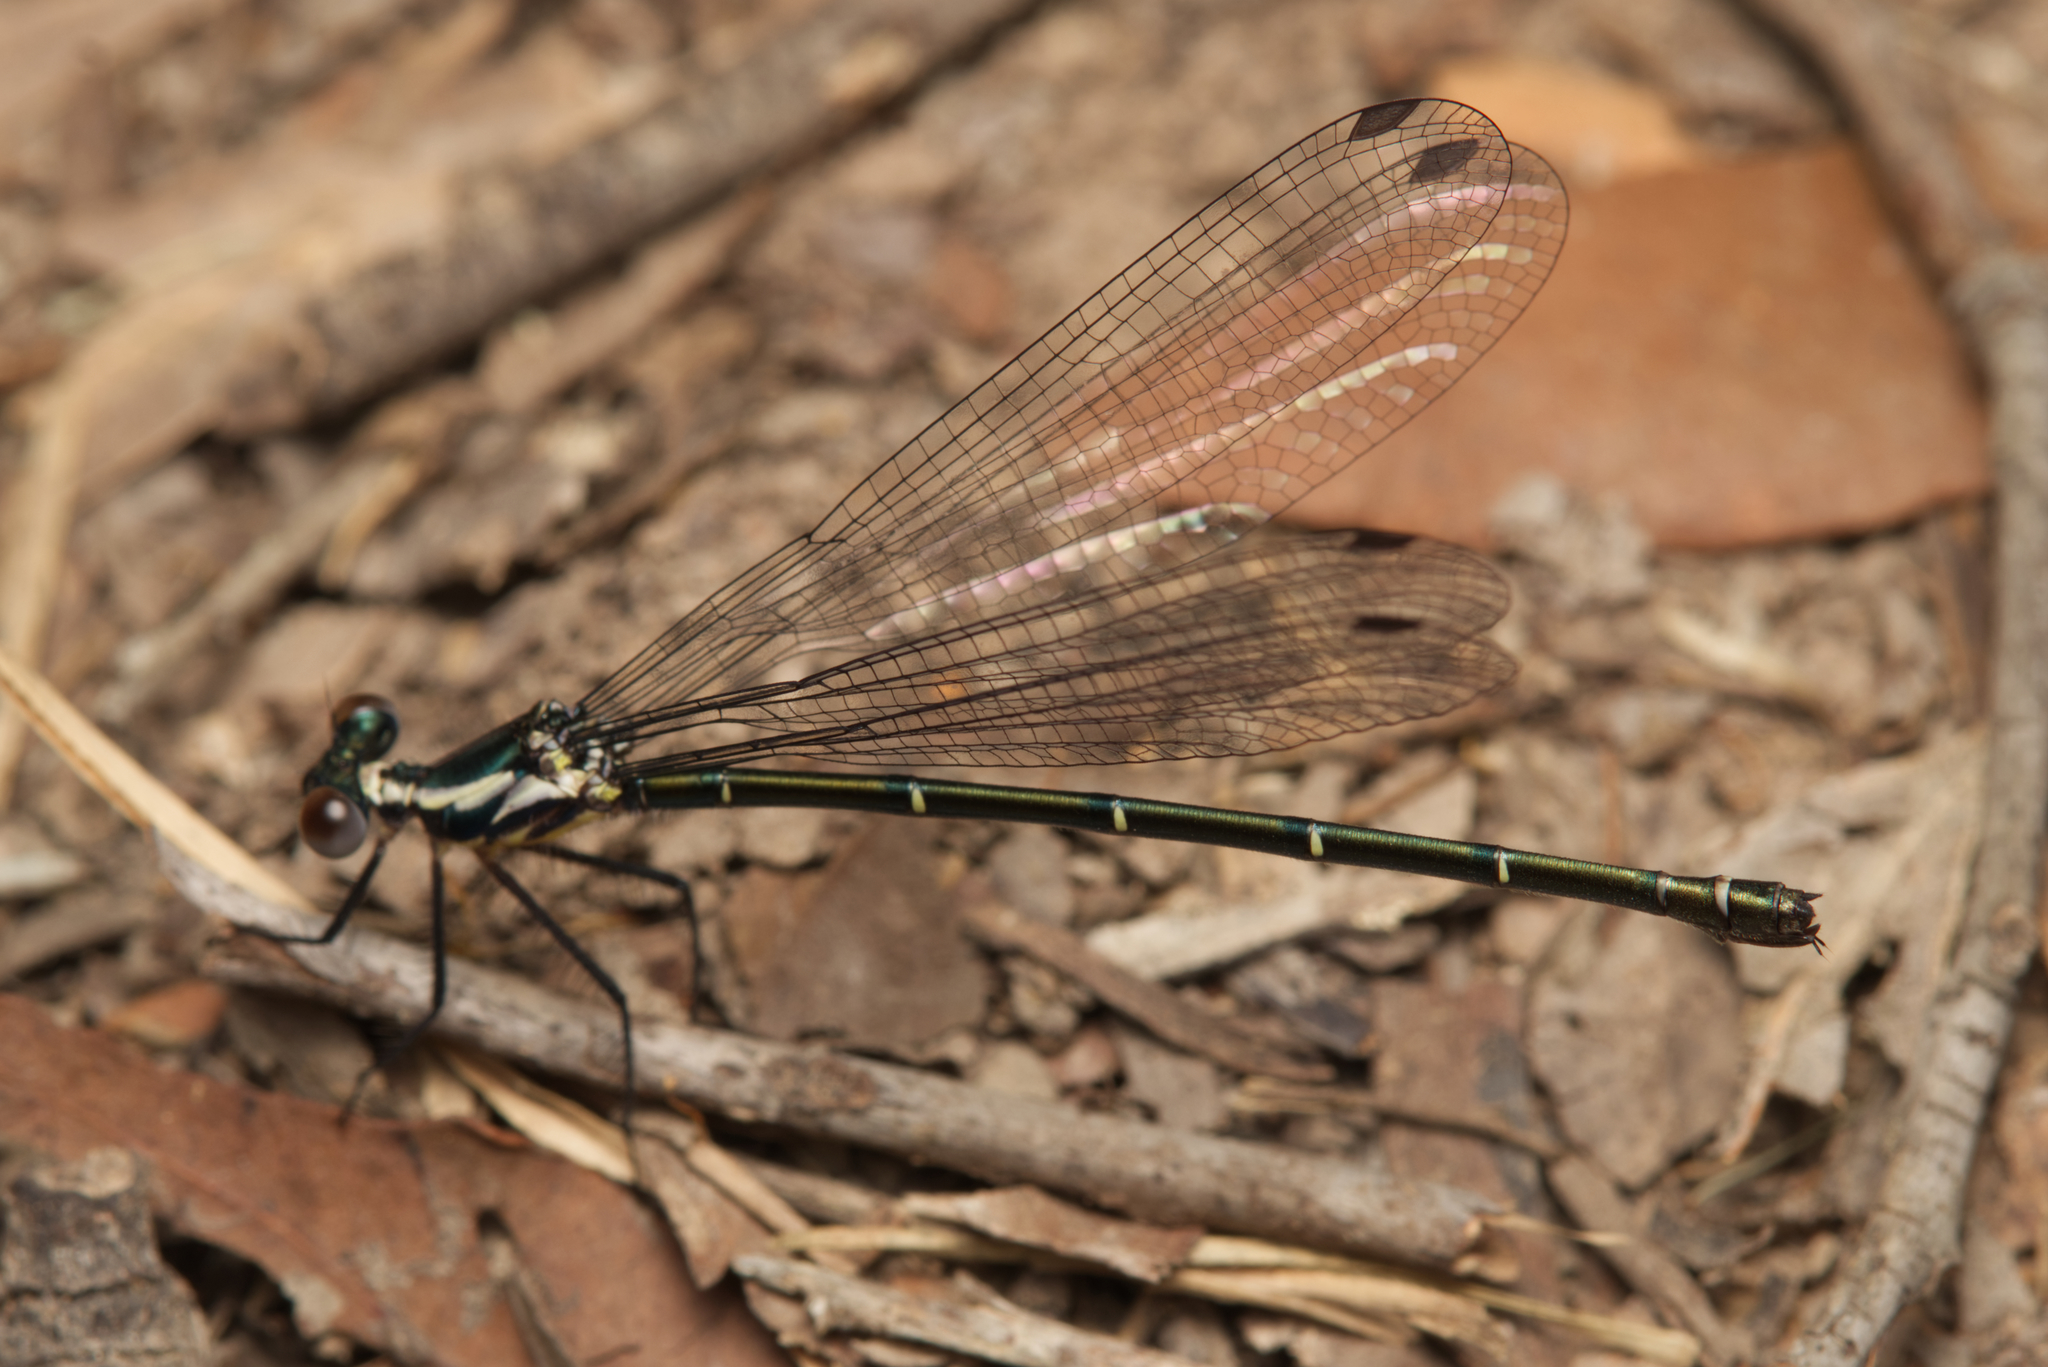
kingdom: Animalia
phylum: Arthropoda
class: Insecta
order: Odonata
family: Argiolestidae
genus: Austroargiolestes
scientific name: Austroargiolestes icteromelas
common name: Common flatwing
